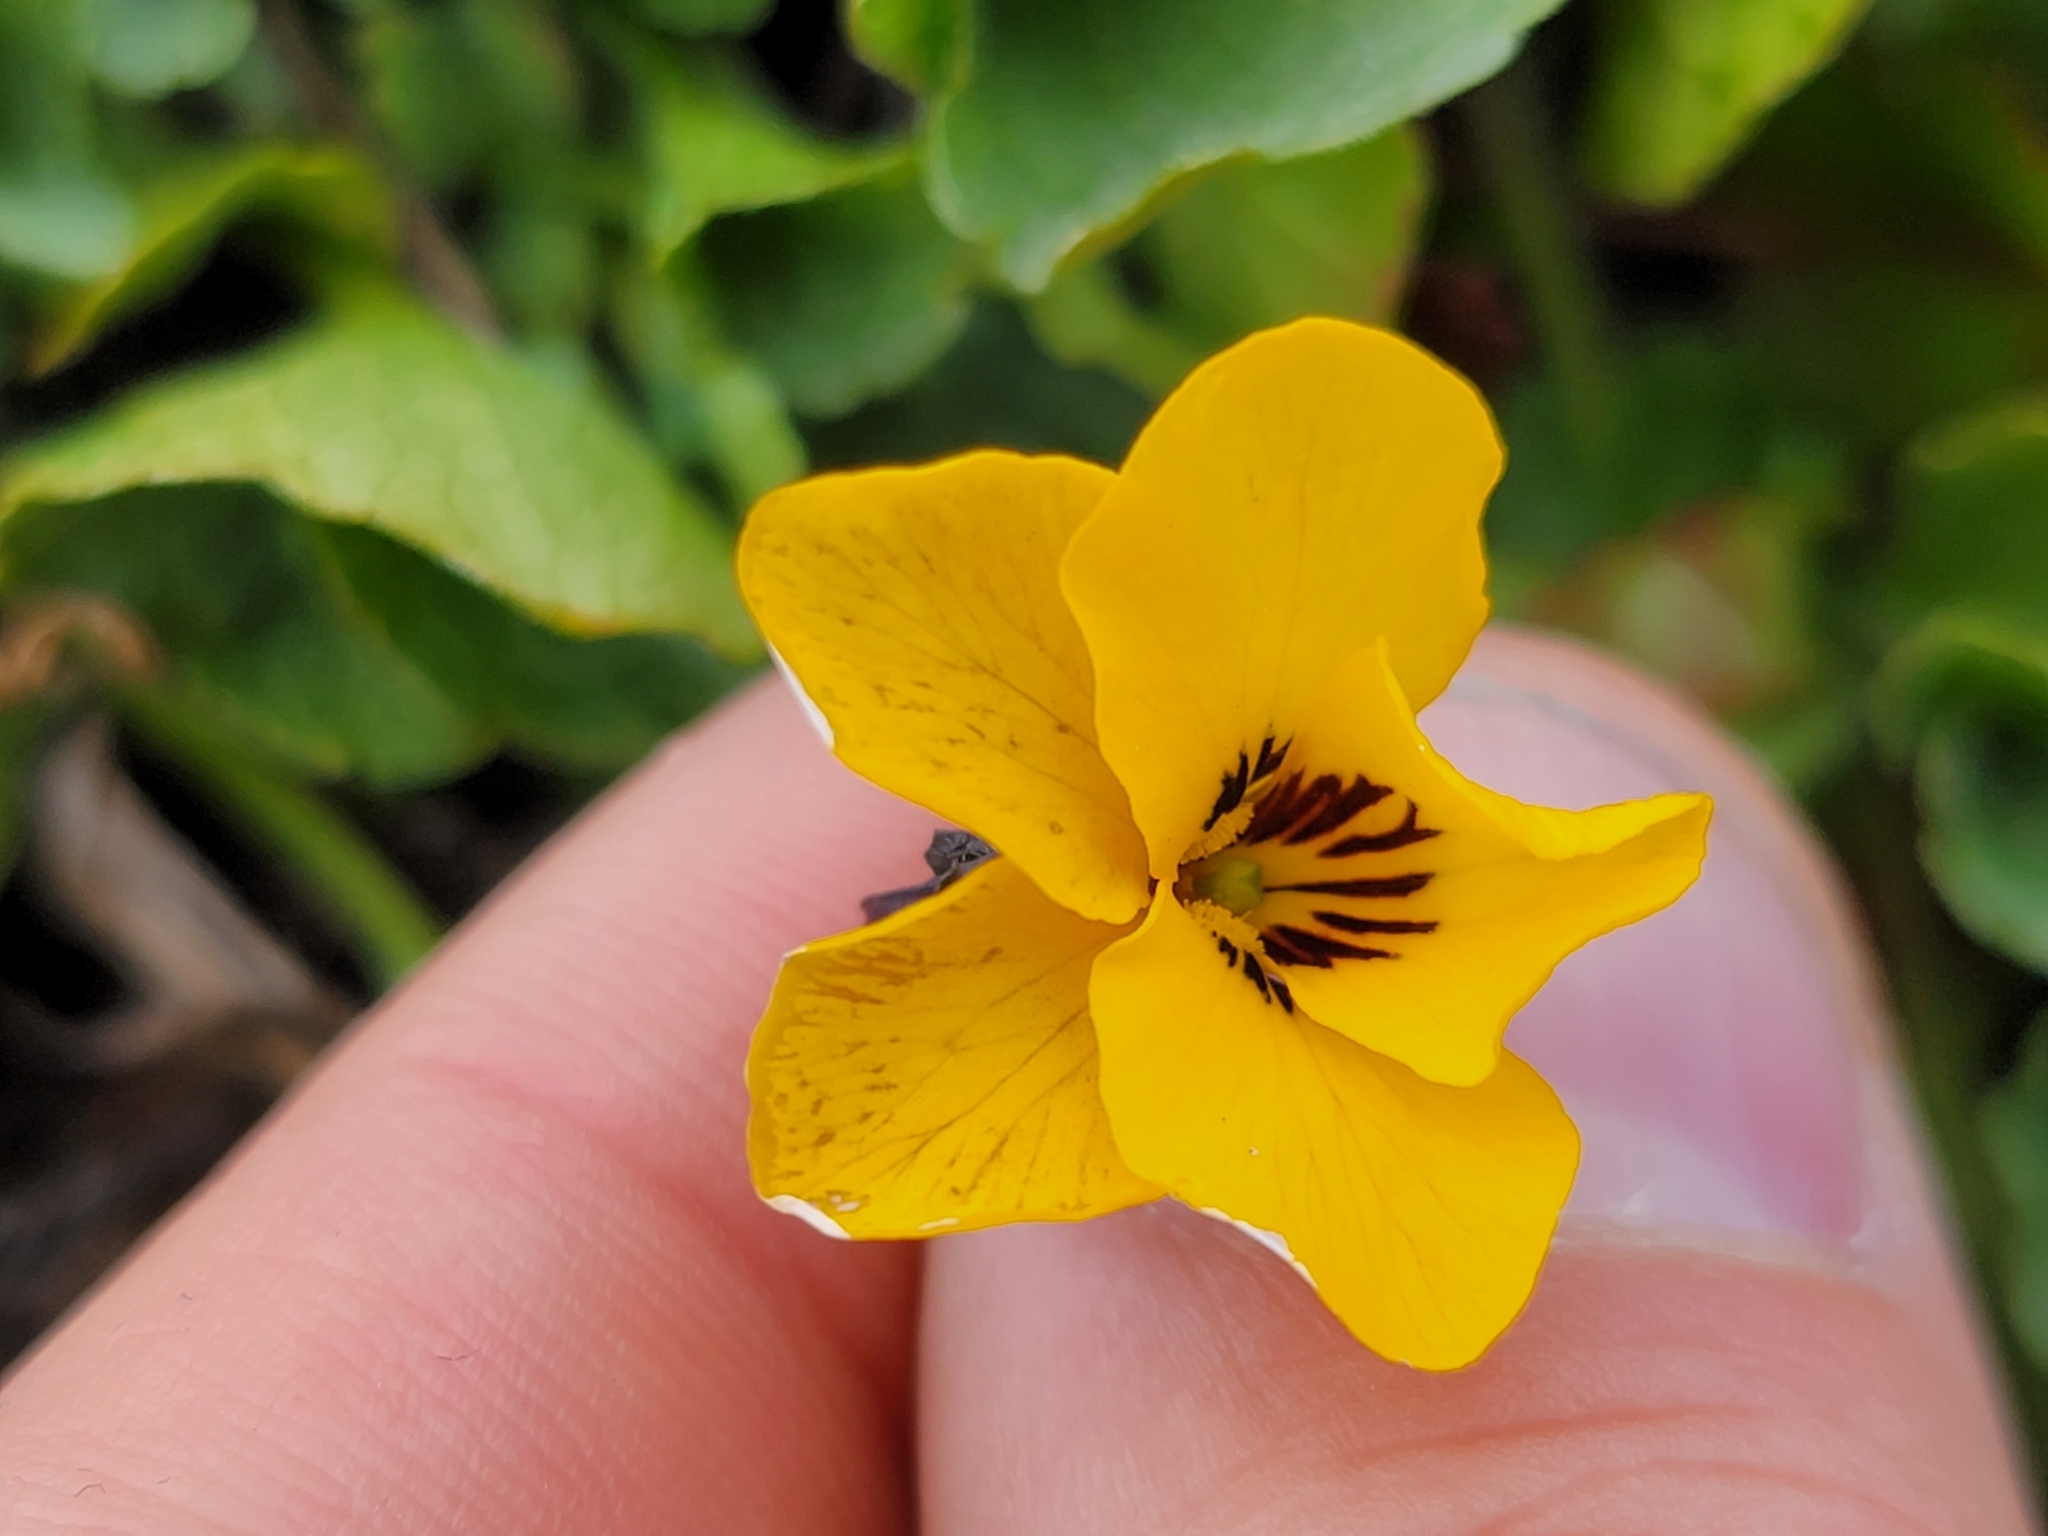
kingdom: Plantae
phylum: Tracheophyta
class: Magnoliopsida
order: Malpighiales
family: Violaceae
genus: Viola
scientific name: Viola pedunculata
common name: California golden violet
